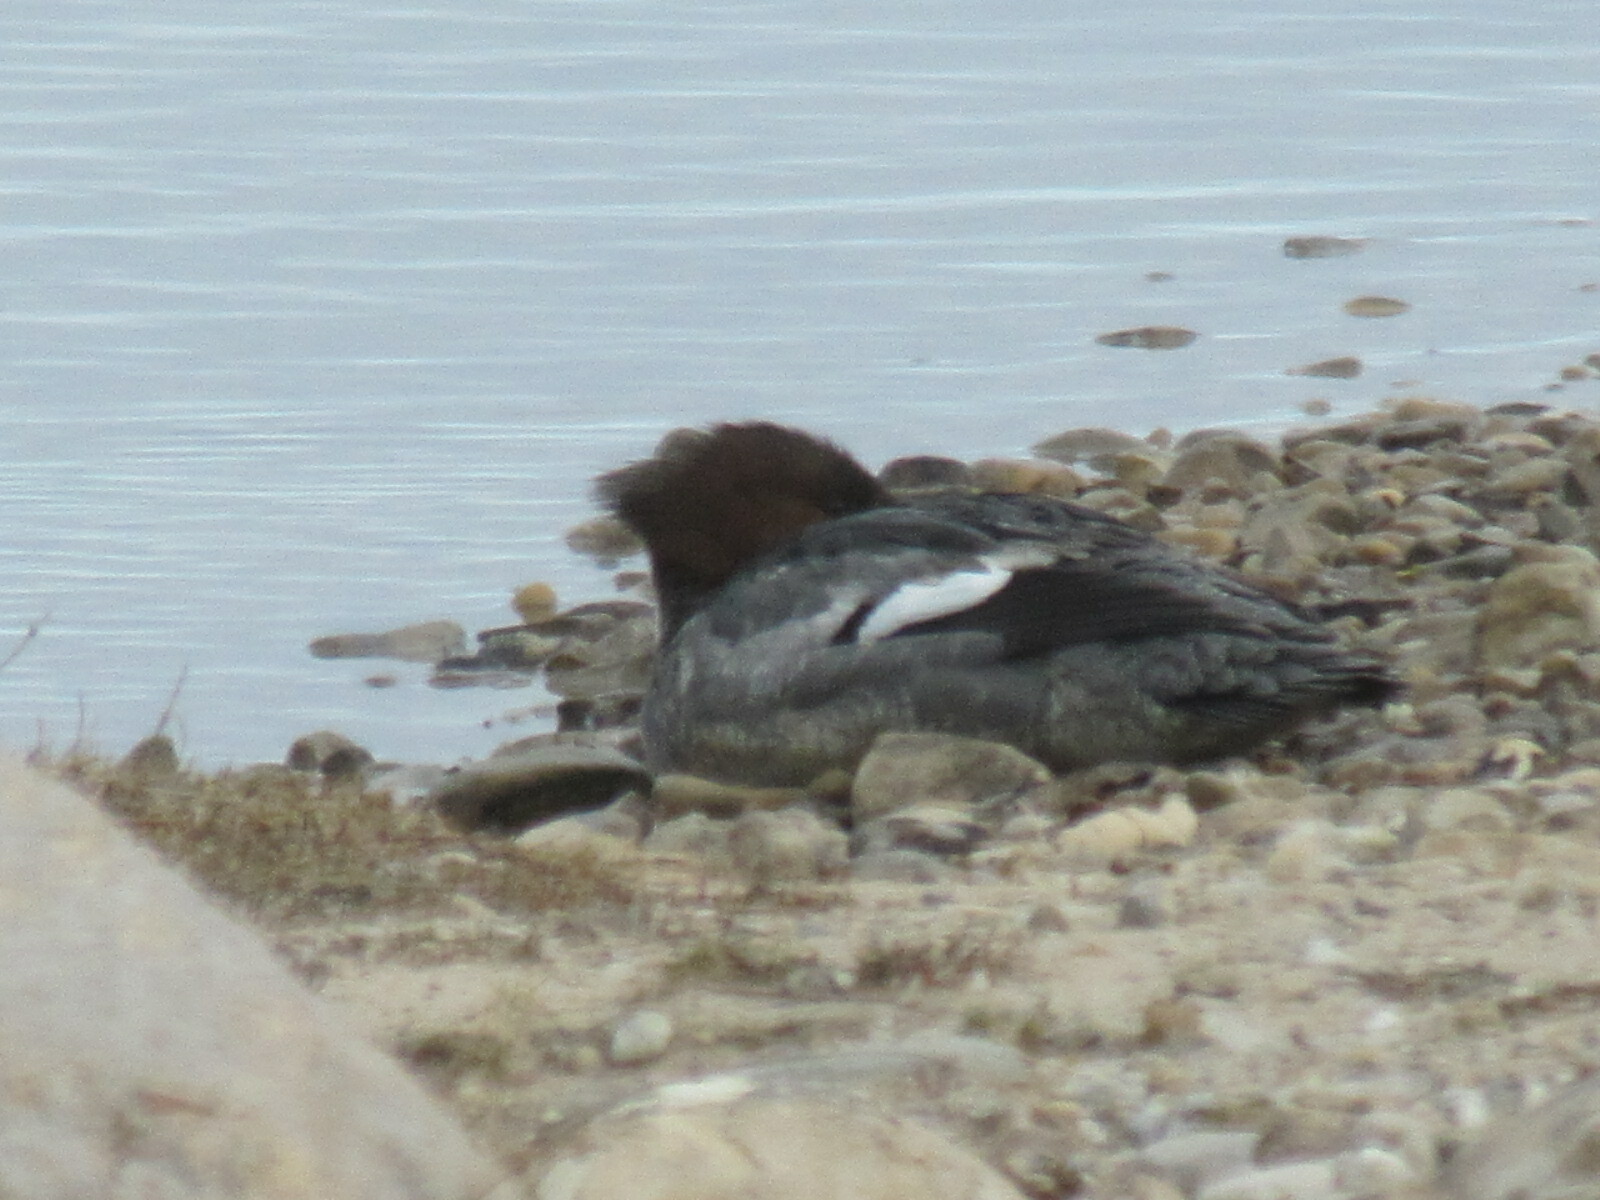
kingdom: Animalia
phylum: Chordata
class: Aves
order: Anseriformes
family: Anatidae
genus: Mergus
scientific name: Mergus merganser
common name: Common merganser
